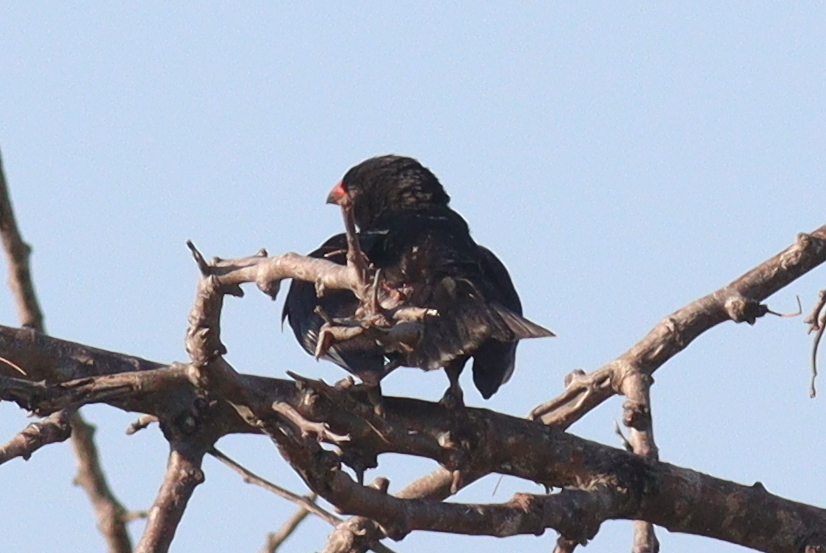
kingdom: Animalia
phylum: Chordata
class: Aves
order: Passeriformes
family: Ploceidae
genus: Bubalornis
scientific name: Bubalornis niger
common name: Red-billed buffalo weaver
